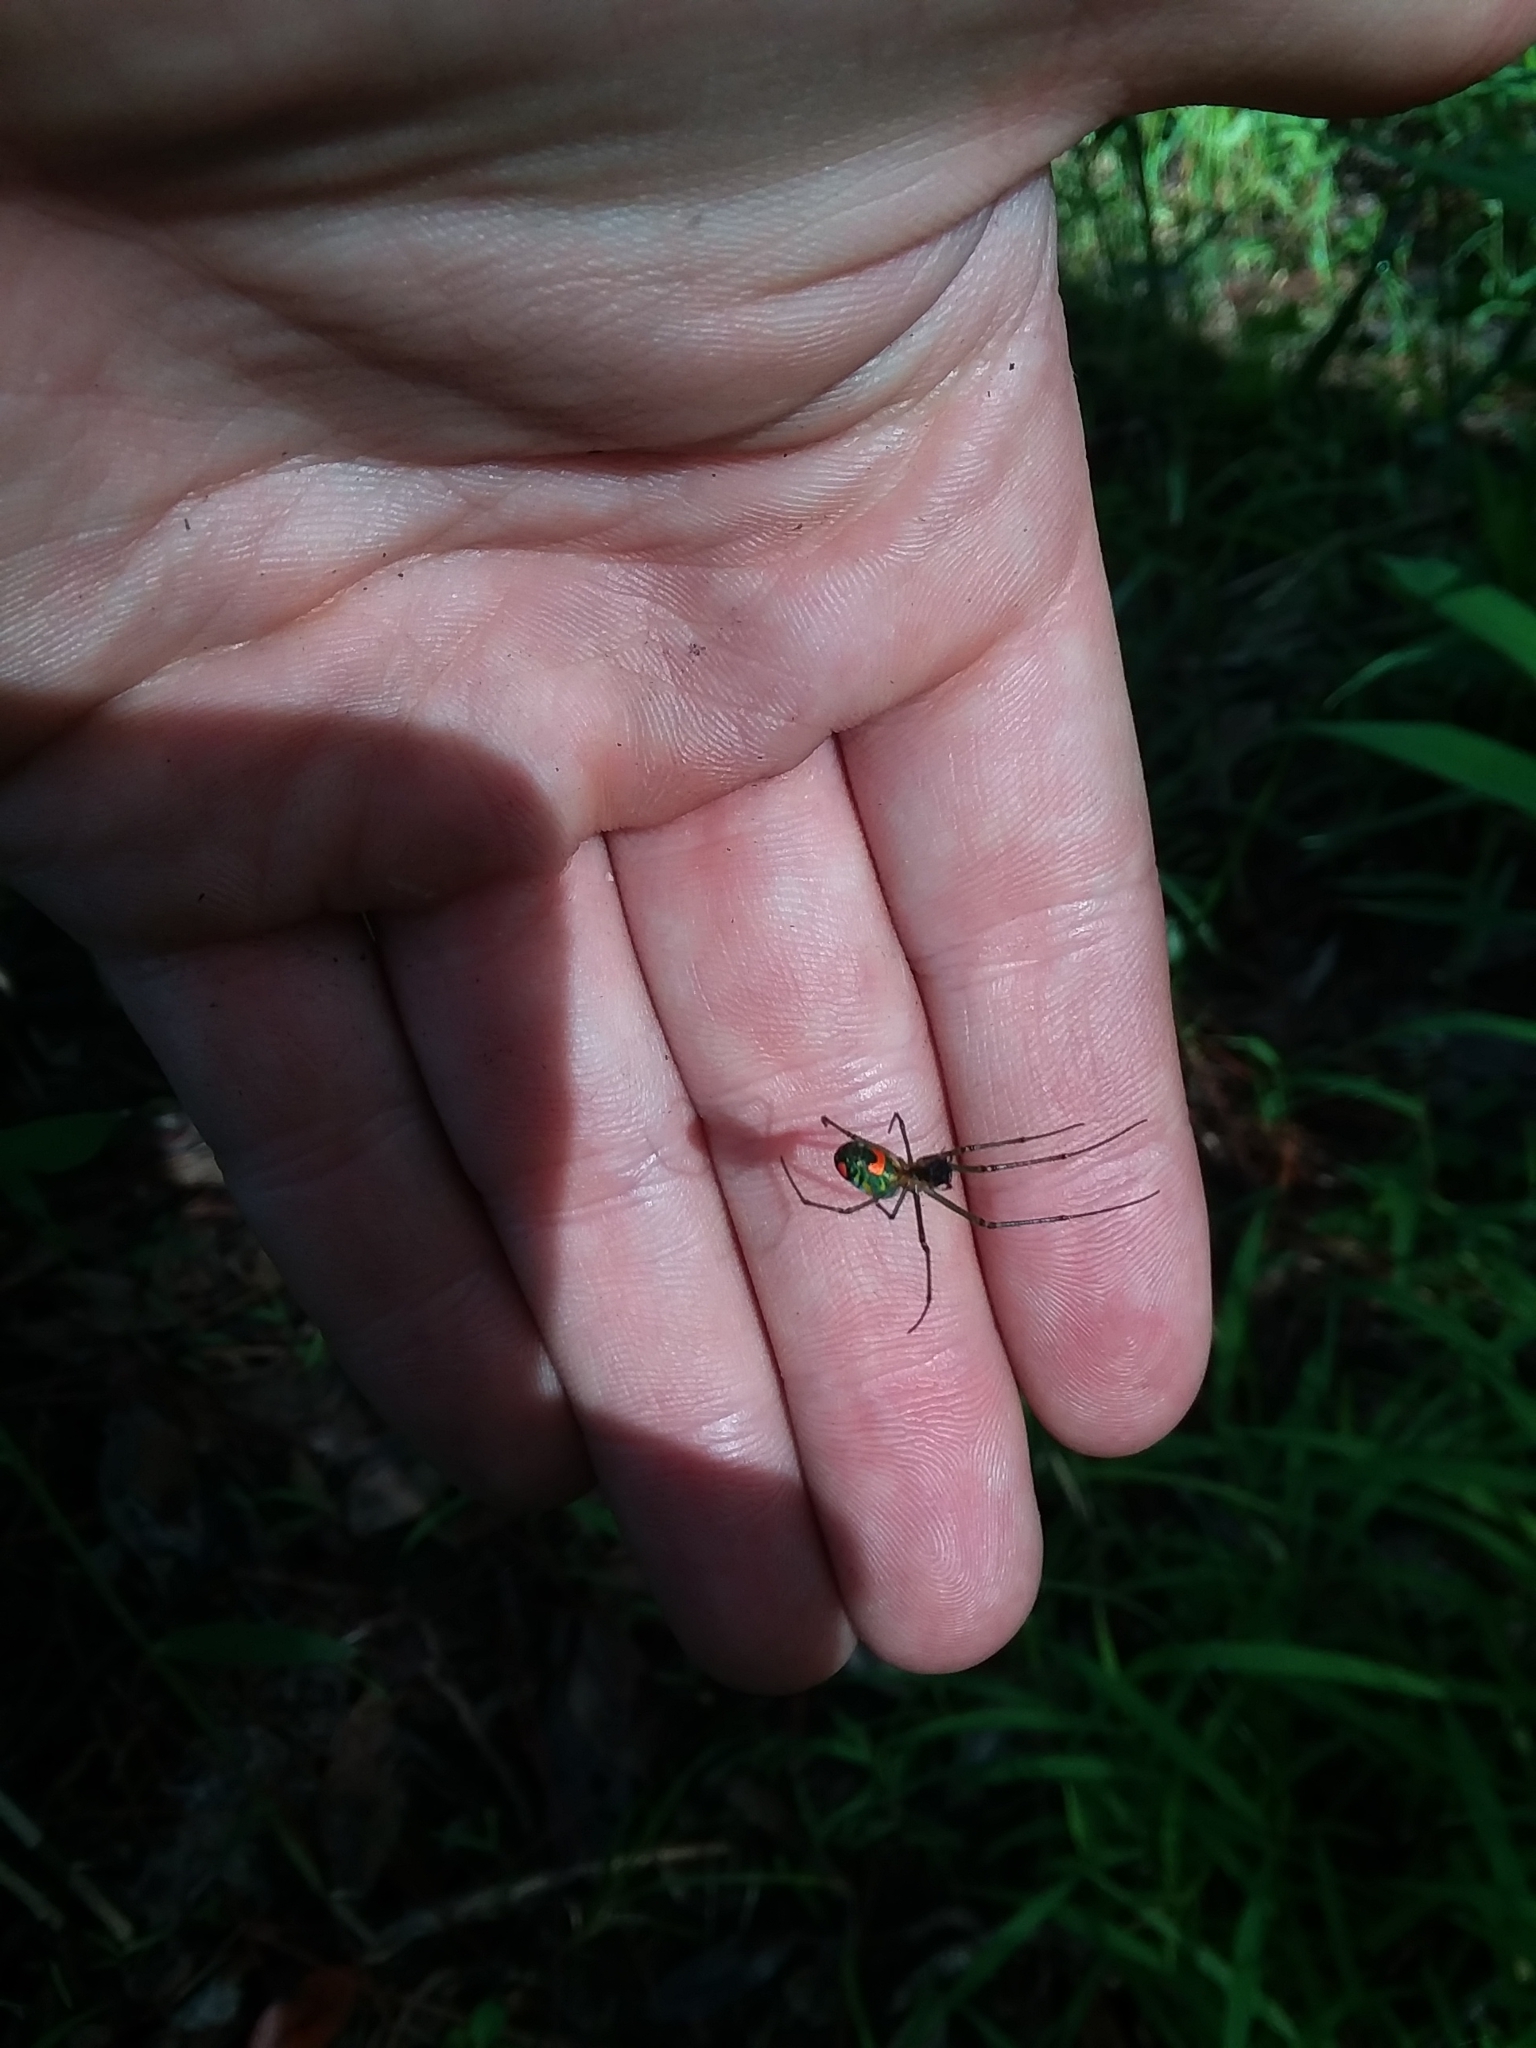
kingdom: Animalia
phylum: Arthropoda
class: Arachnida
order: Araneae
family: Tetragnathidae
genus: Leucauge
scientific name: Leucauge argyrobapta
